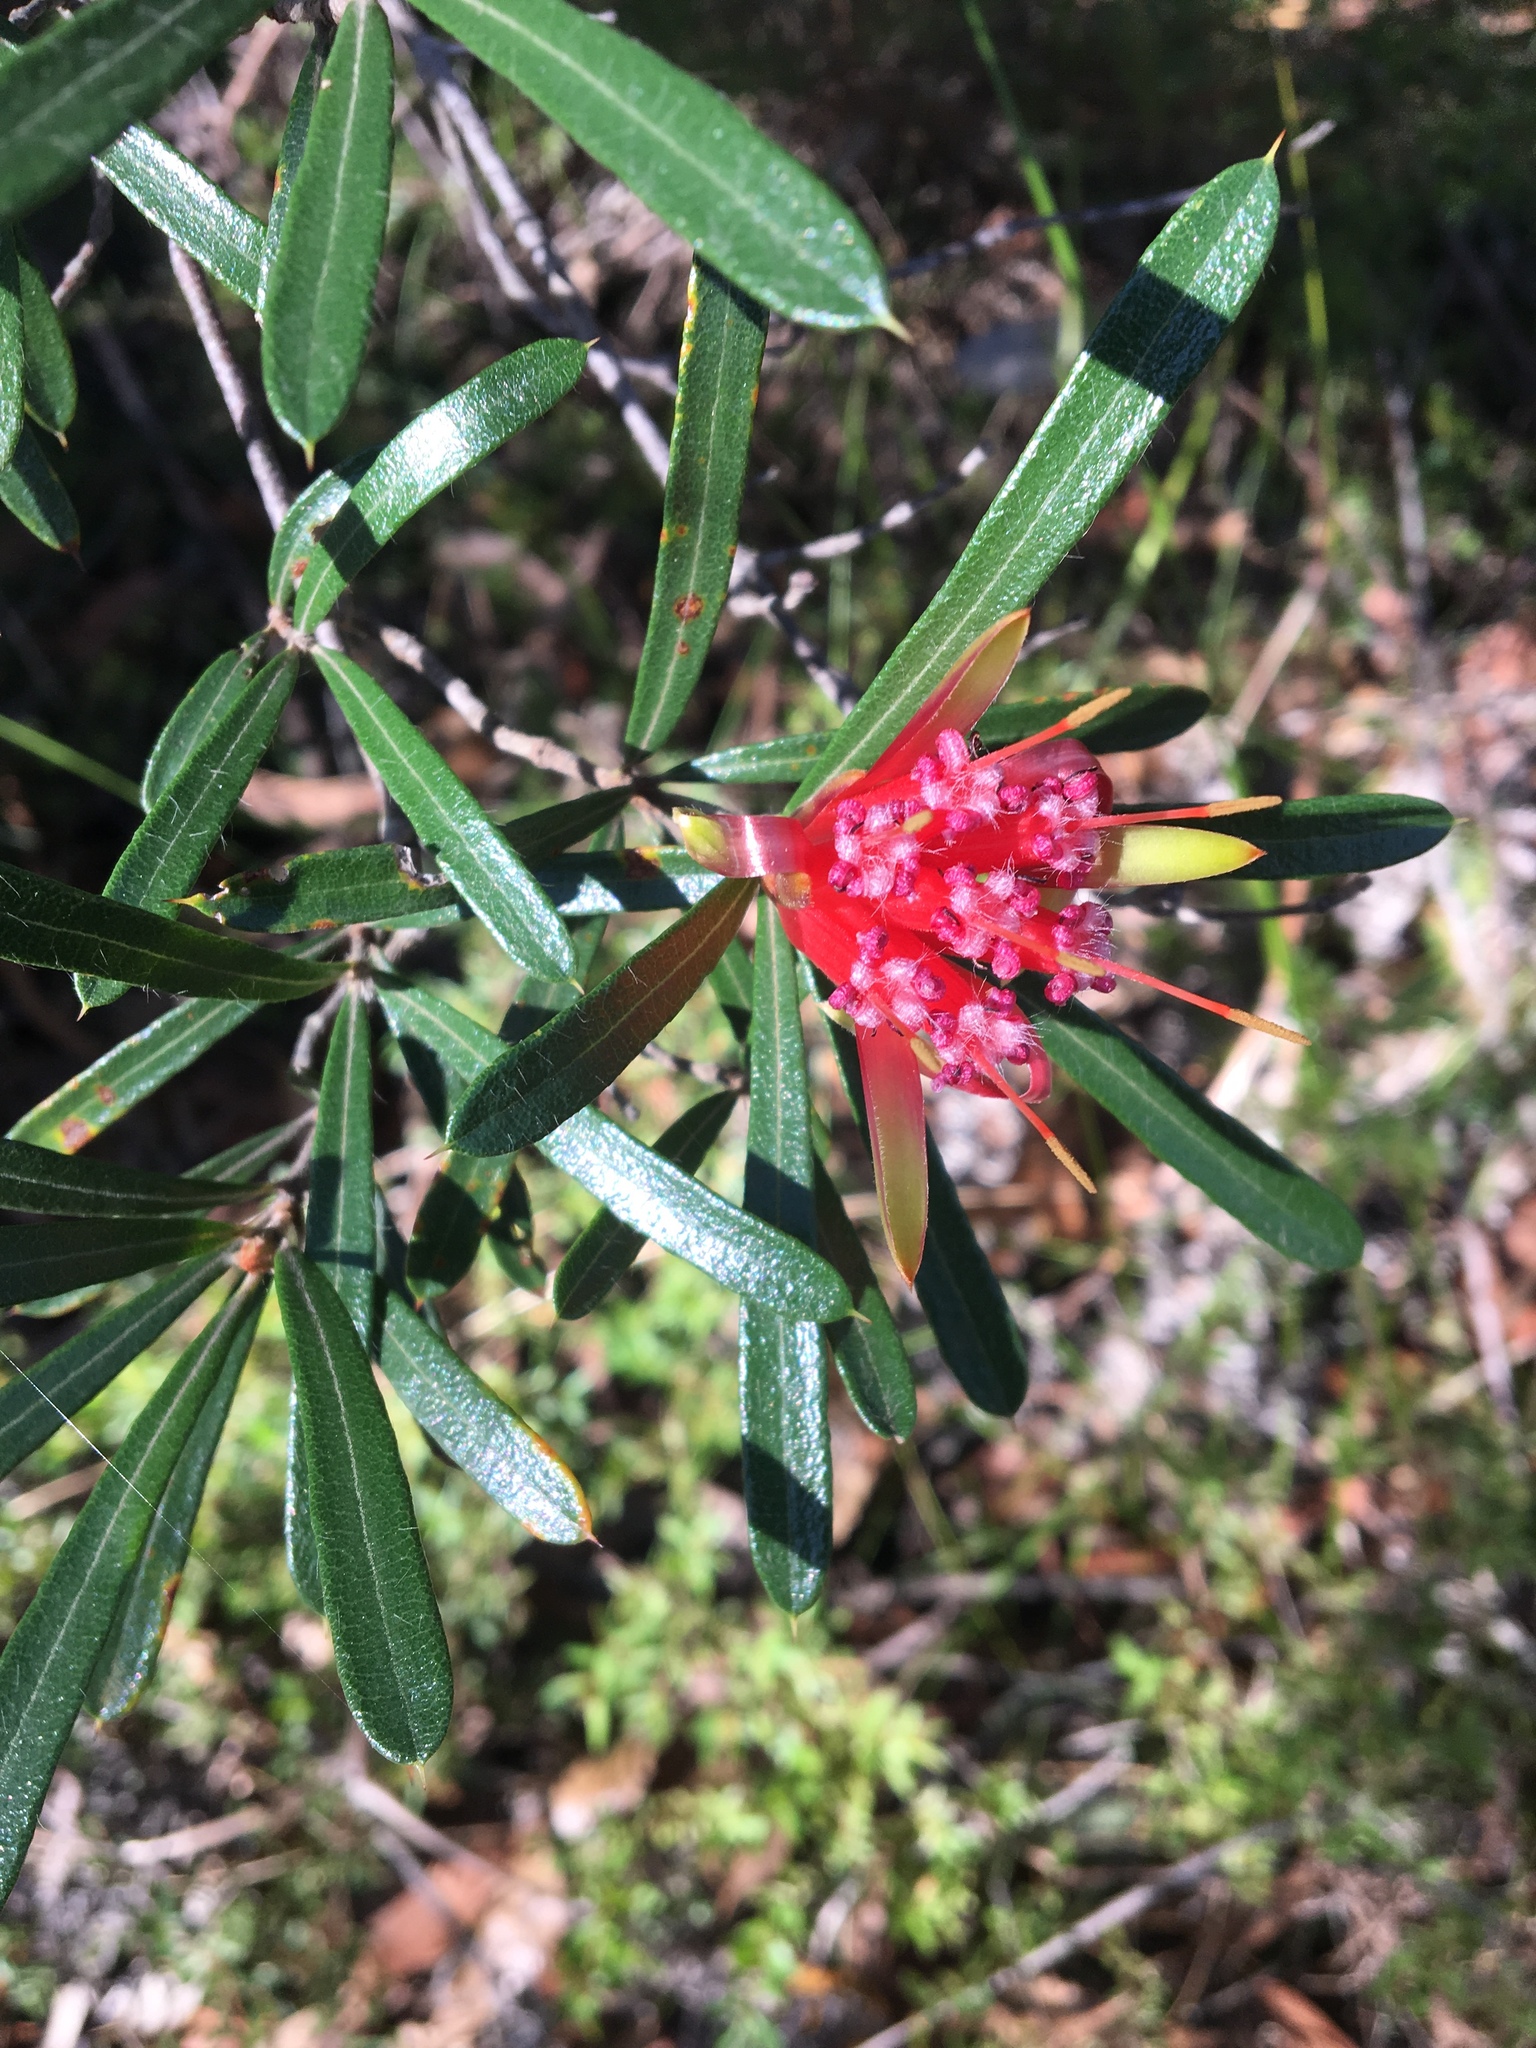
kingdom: Plantae
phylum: Tracheophyta
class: Magnoliopsida
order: Proteales
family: Proteaceae
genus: Lambertia
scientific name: Lambertia formosa
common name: Mountain-devil
